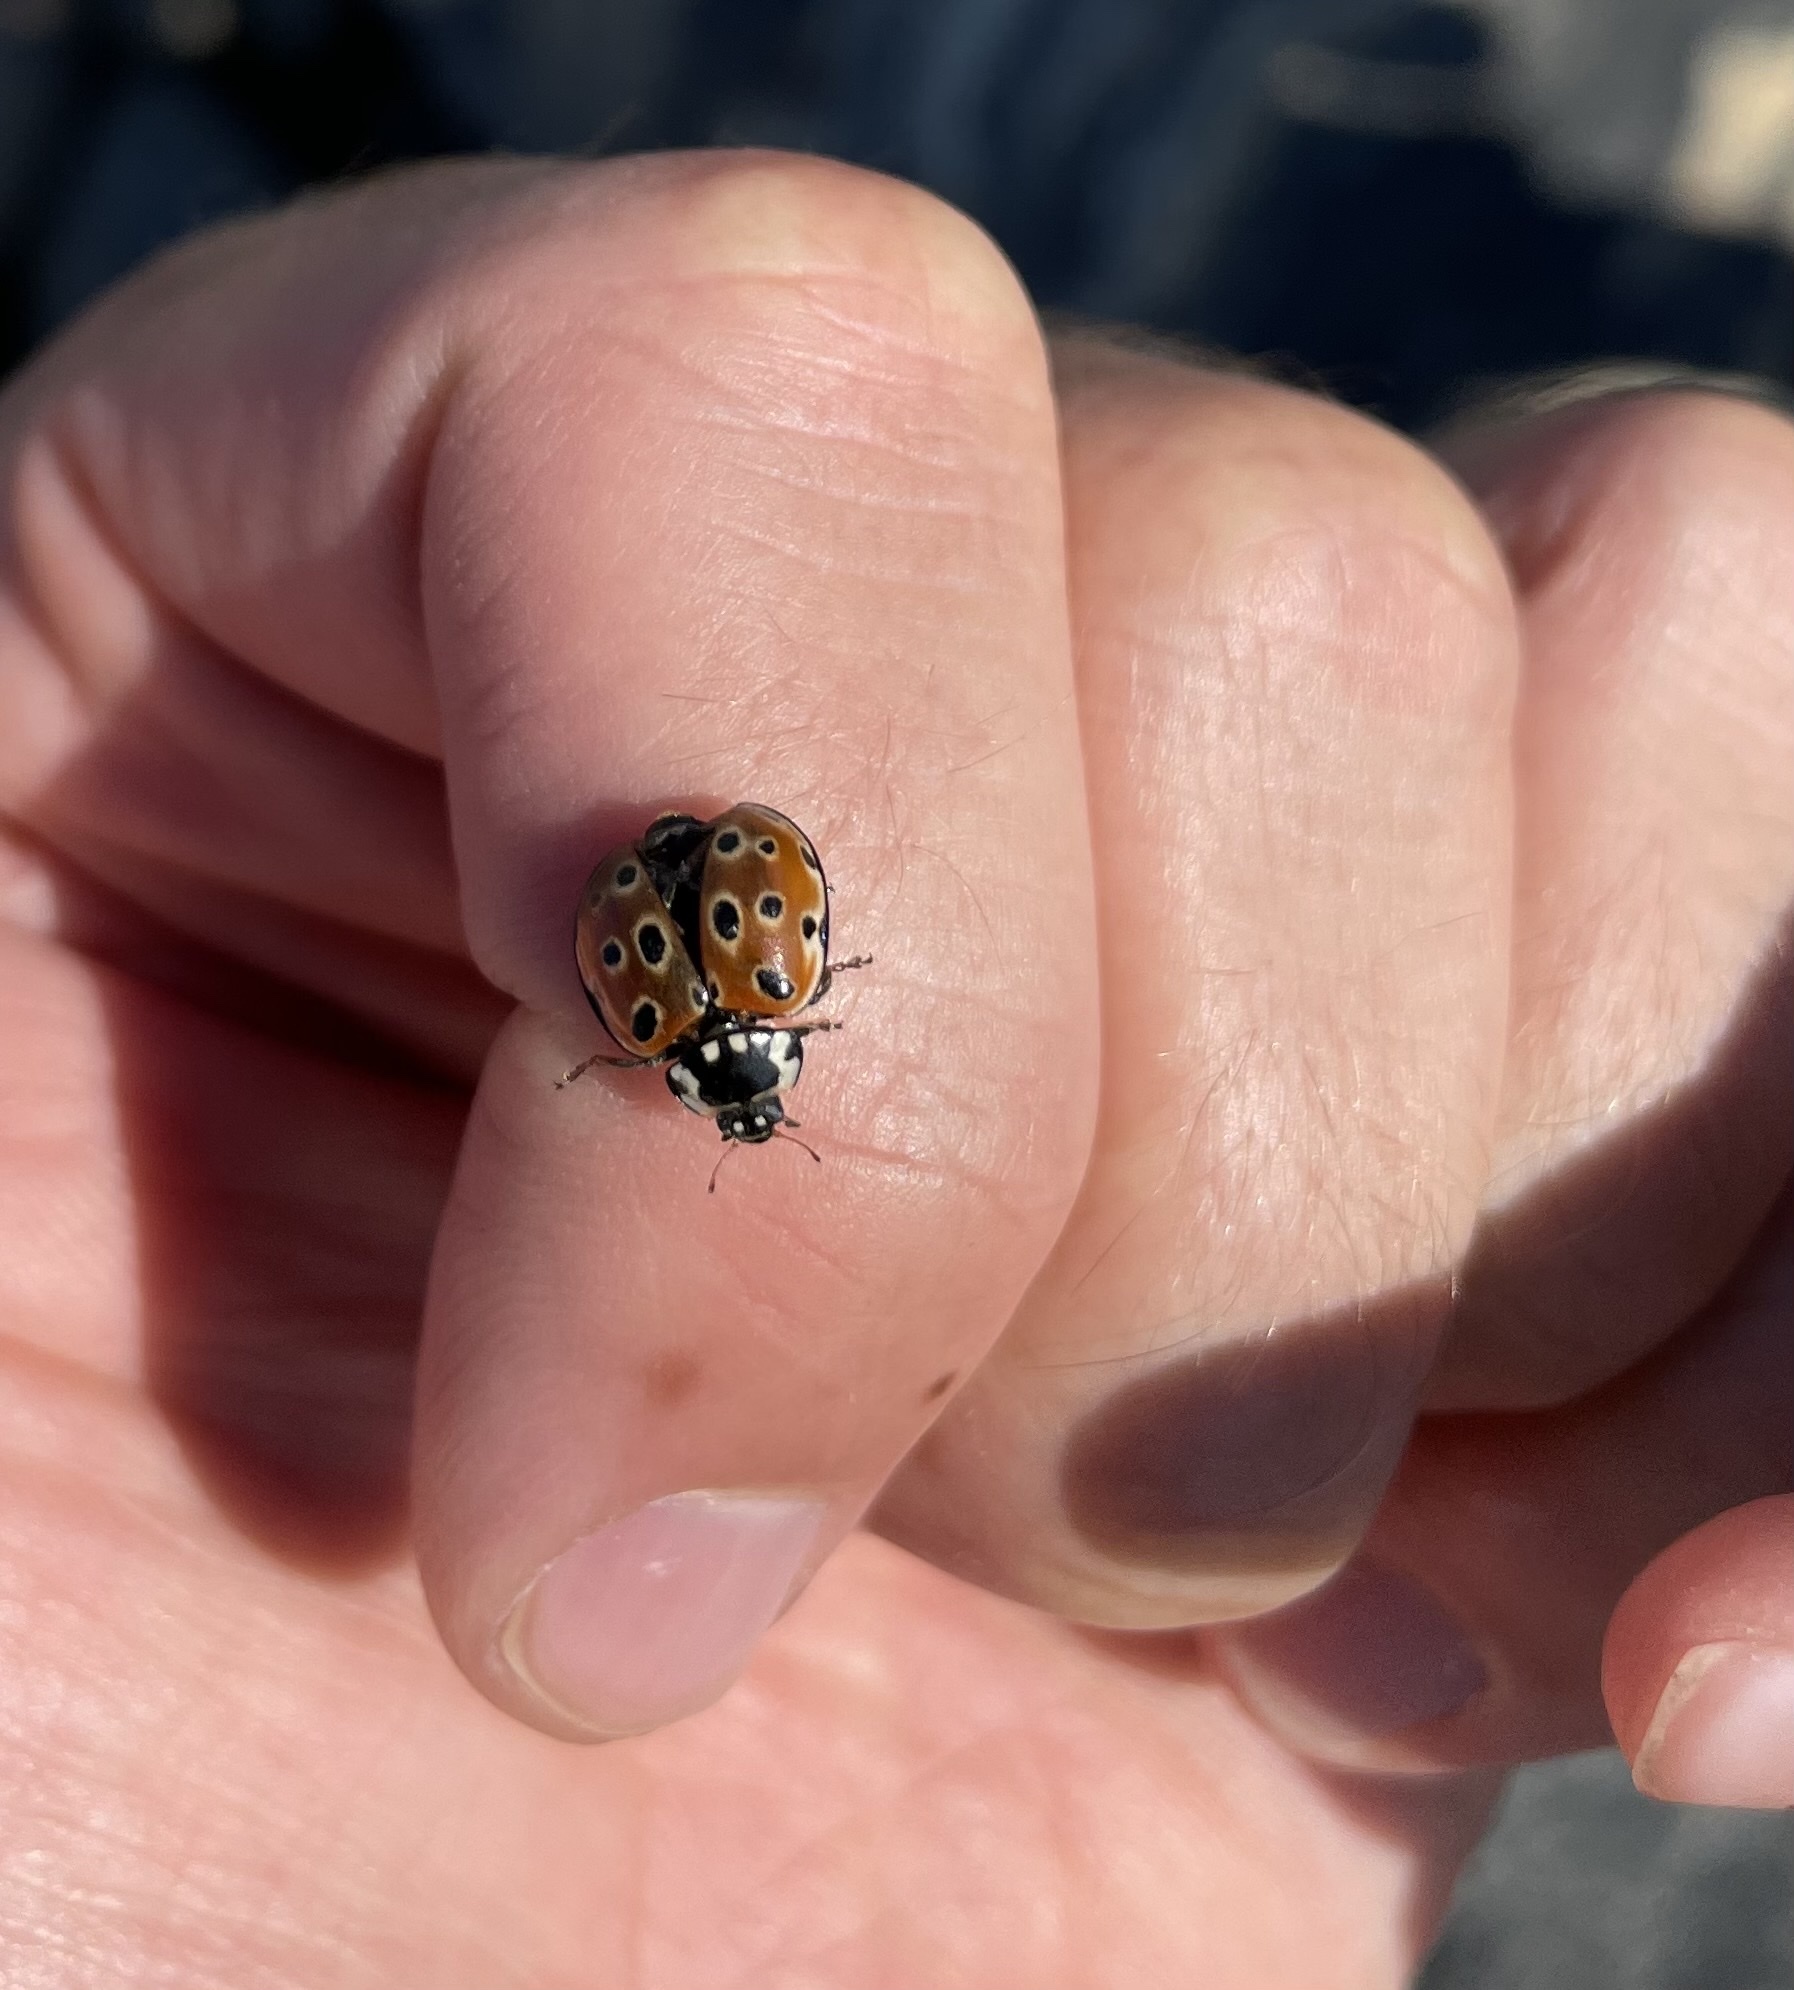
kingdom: Animalia
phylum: Arthropoda
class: Insecta
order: Coleoptera
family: Coccinellidae
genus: Anatis
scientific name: Anatis ocellata
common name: Eyed ladybird
